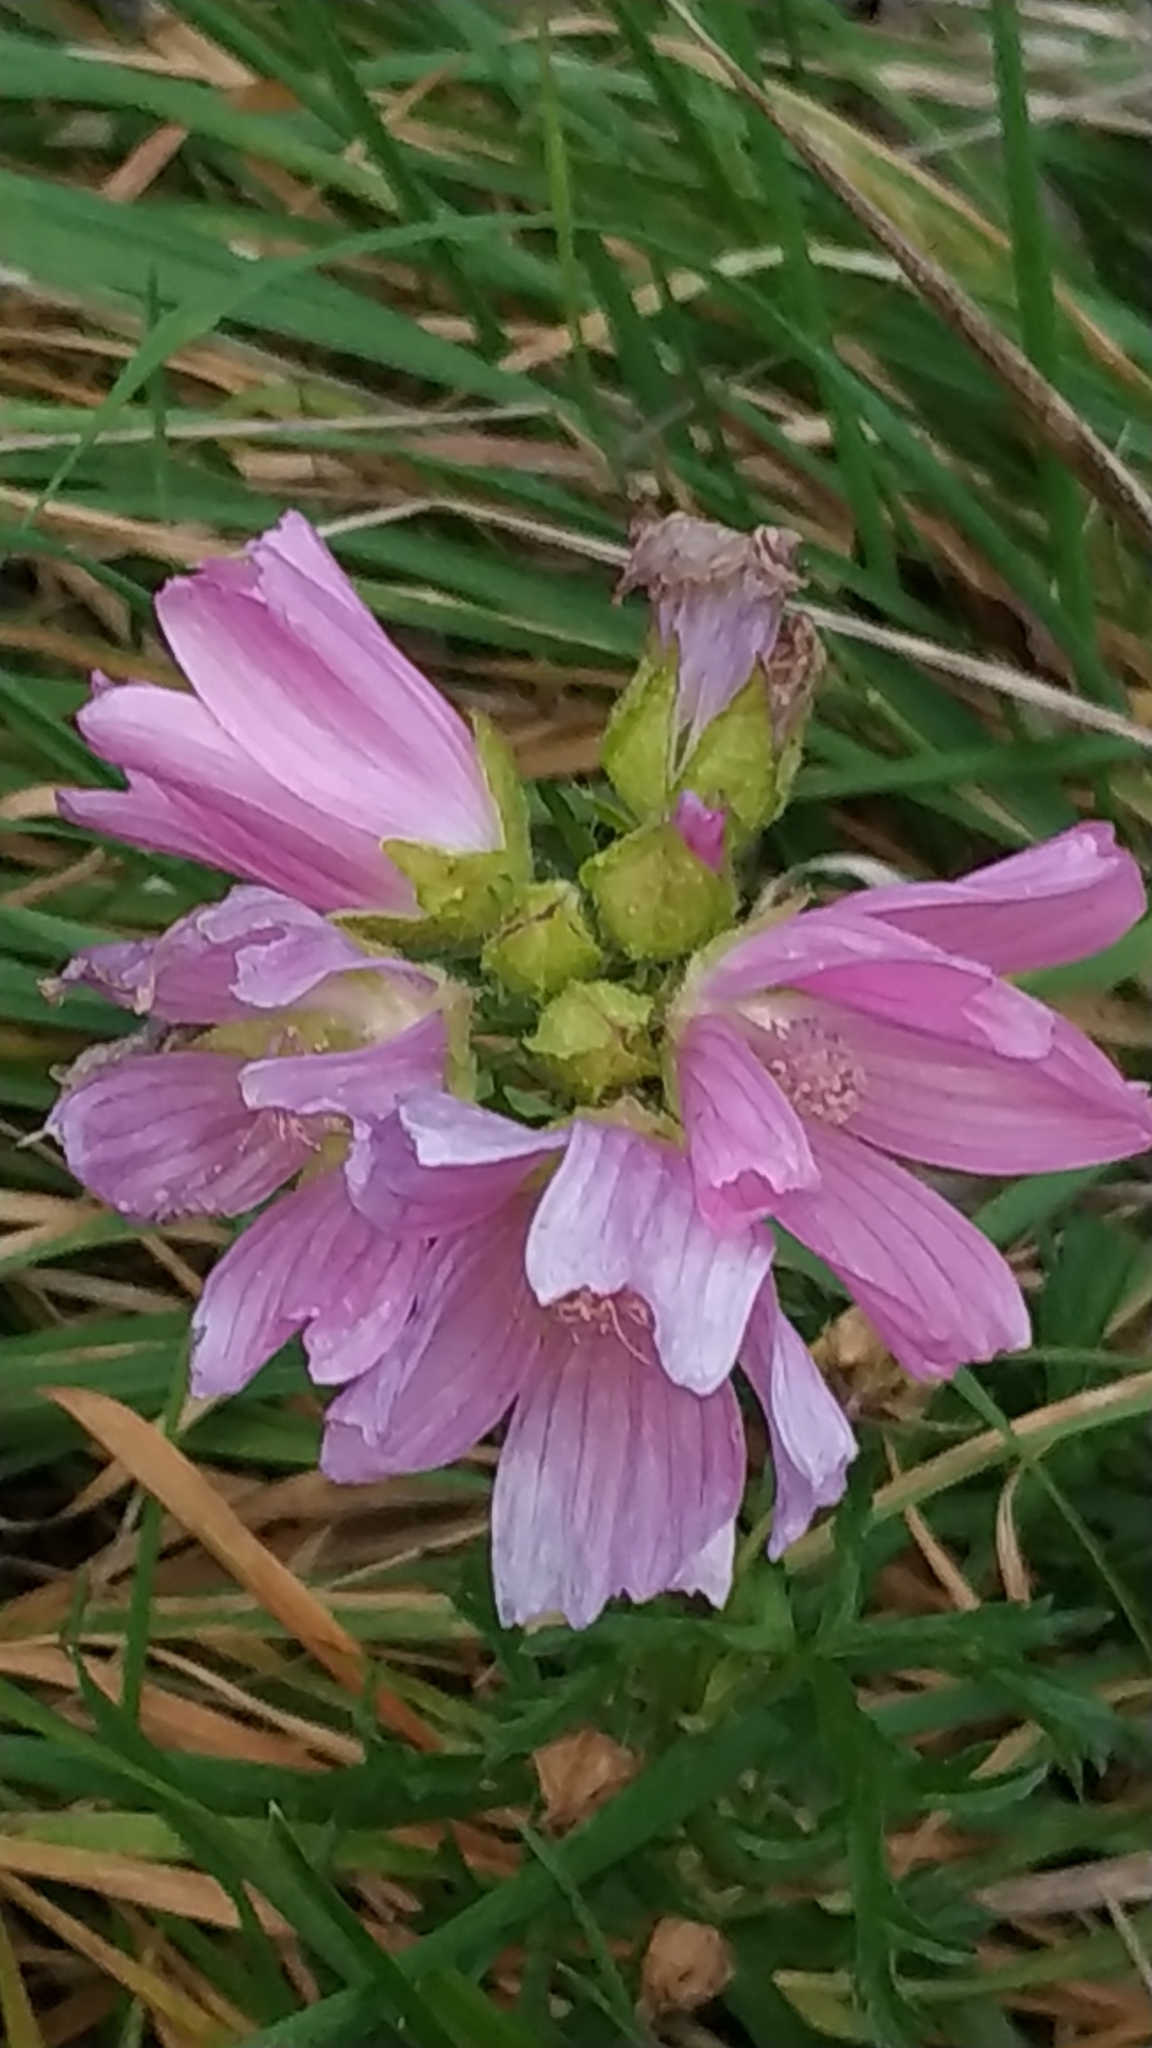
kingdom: Plantae
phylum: Tracheophyta
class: Magnoliopsida
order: Malvales
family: Malvaceae
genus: Malva
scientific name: Malva moschata
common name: Musk mallow
